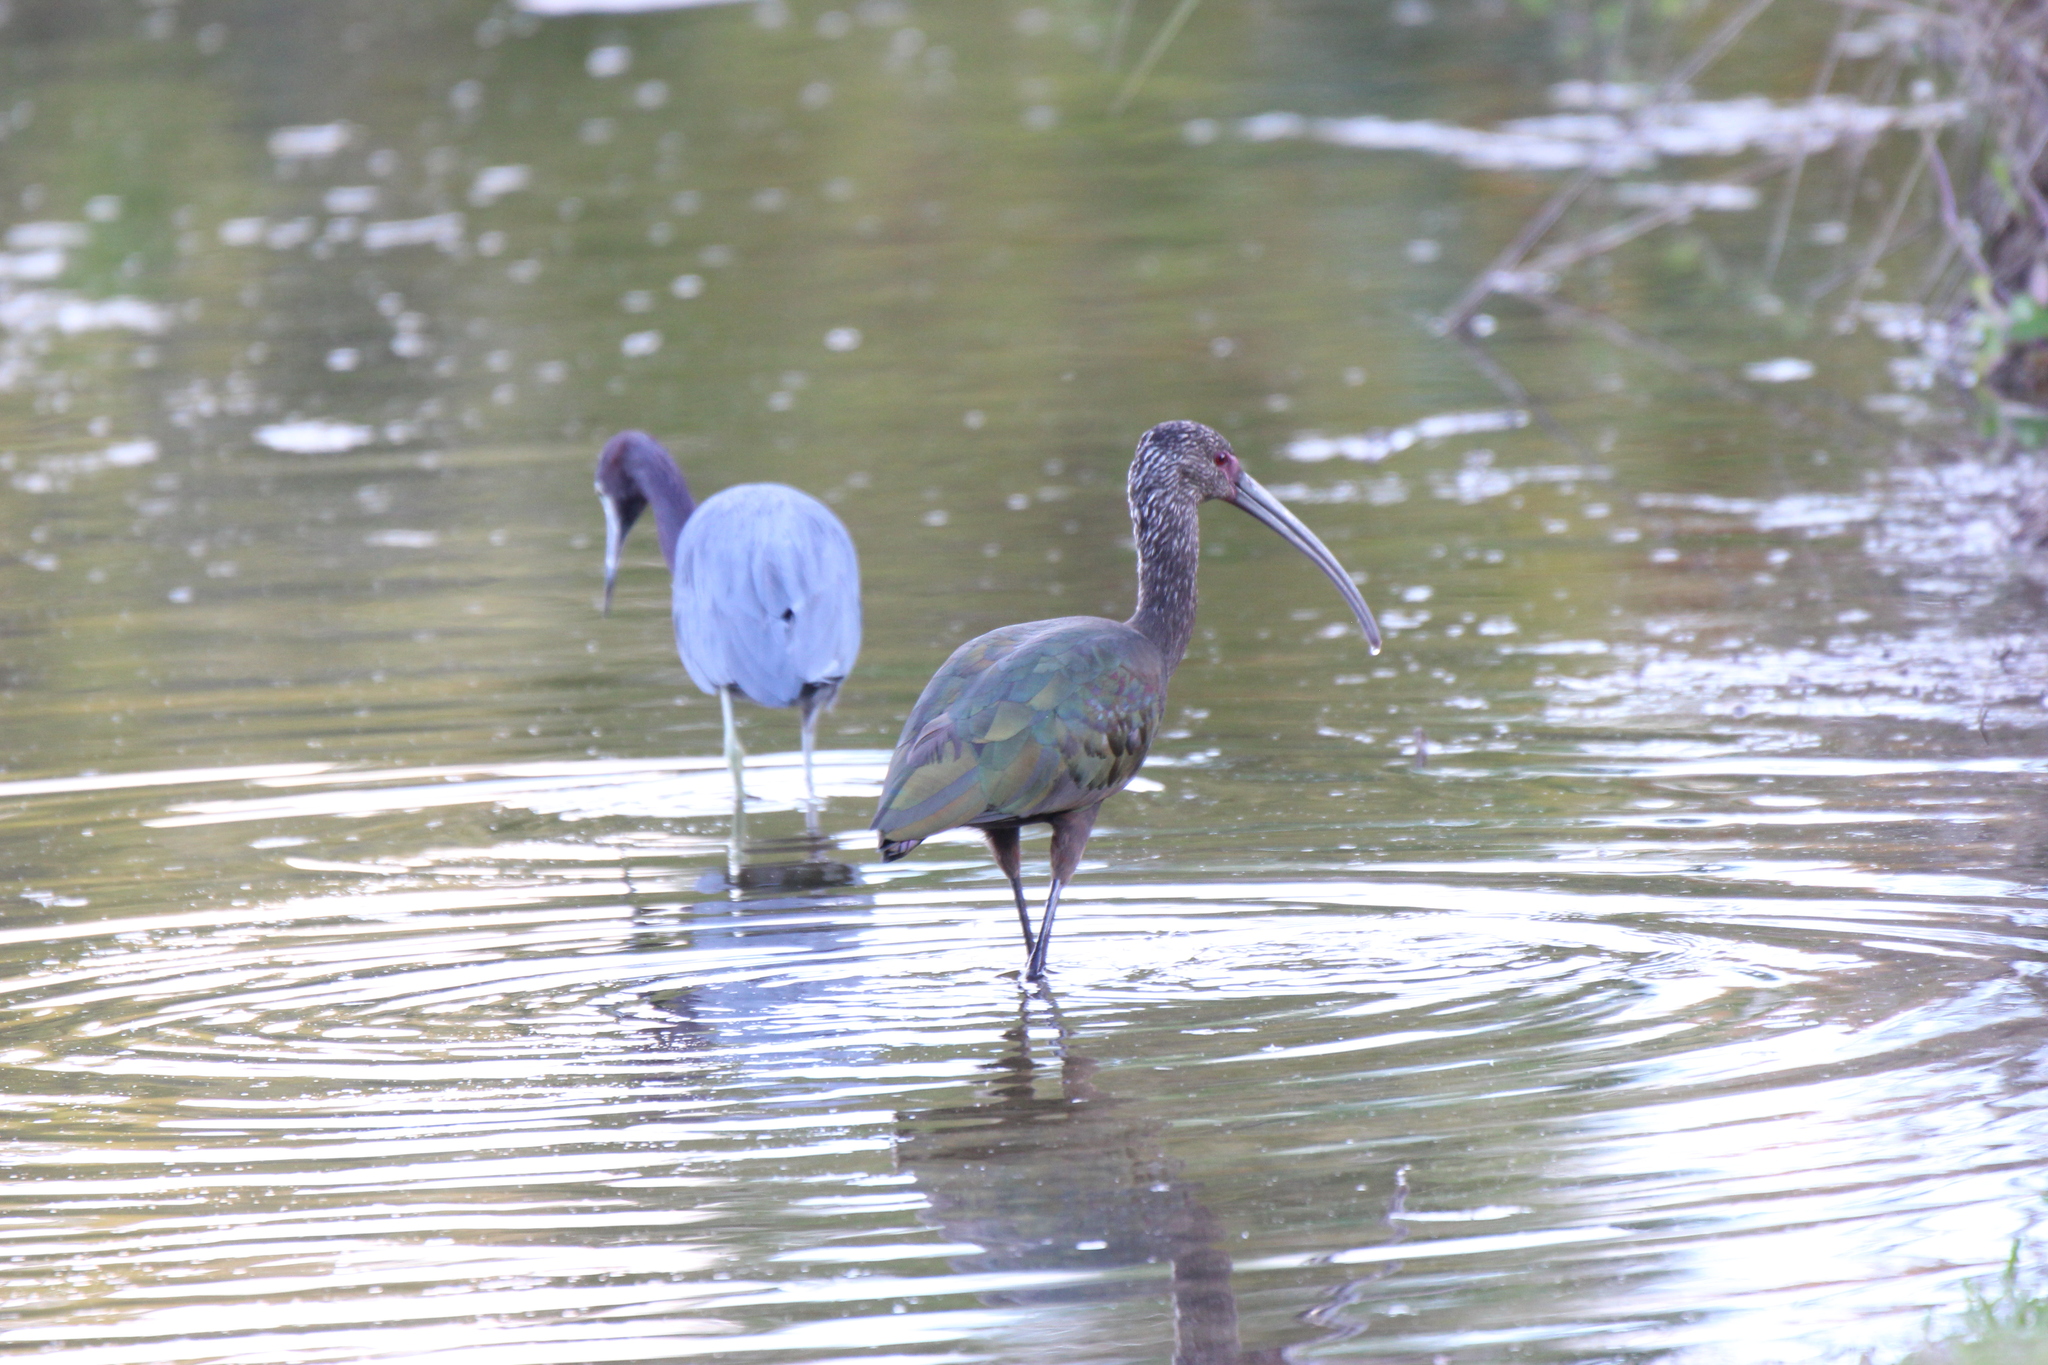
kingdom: Animalia
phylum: Chordata
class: Aves
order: Pelecaniformes
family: Threskiornithidae
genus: Plegadis
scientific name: Plegadis chihi
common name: White-faced ibis
